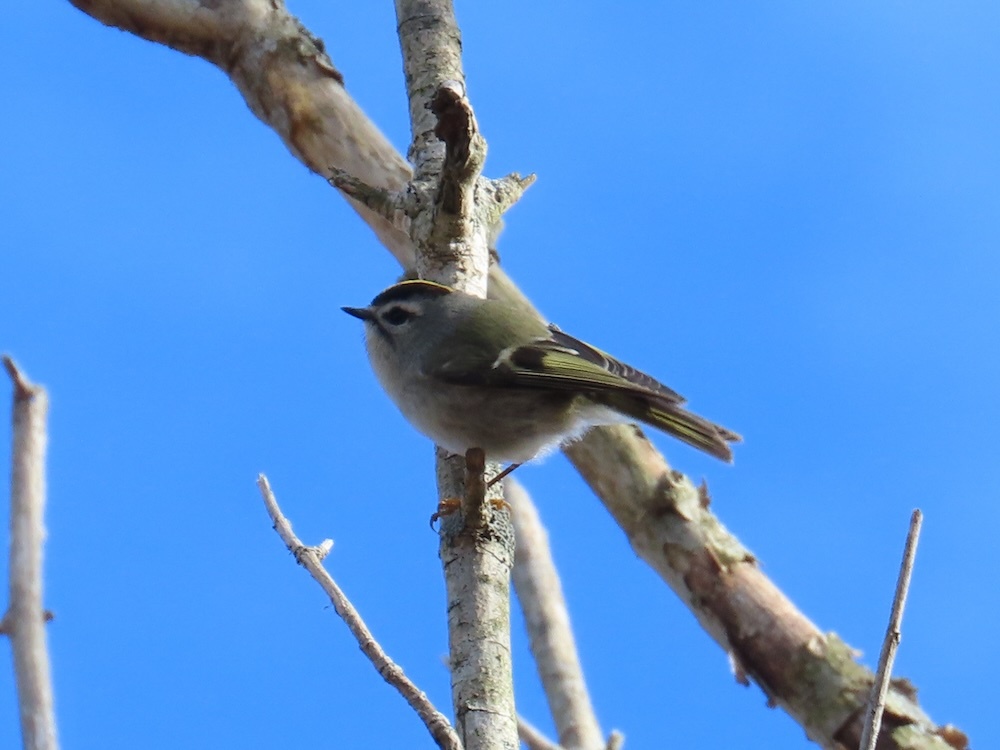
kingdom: Animalia
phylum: Chordata
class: Aves
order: Passeriformes
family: Regulidae
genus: Regulus
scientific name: Regulus satrapa
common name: Golden-crowned kinglet
